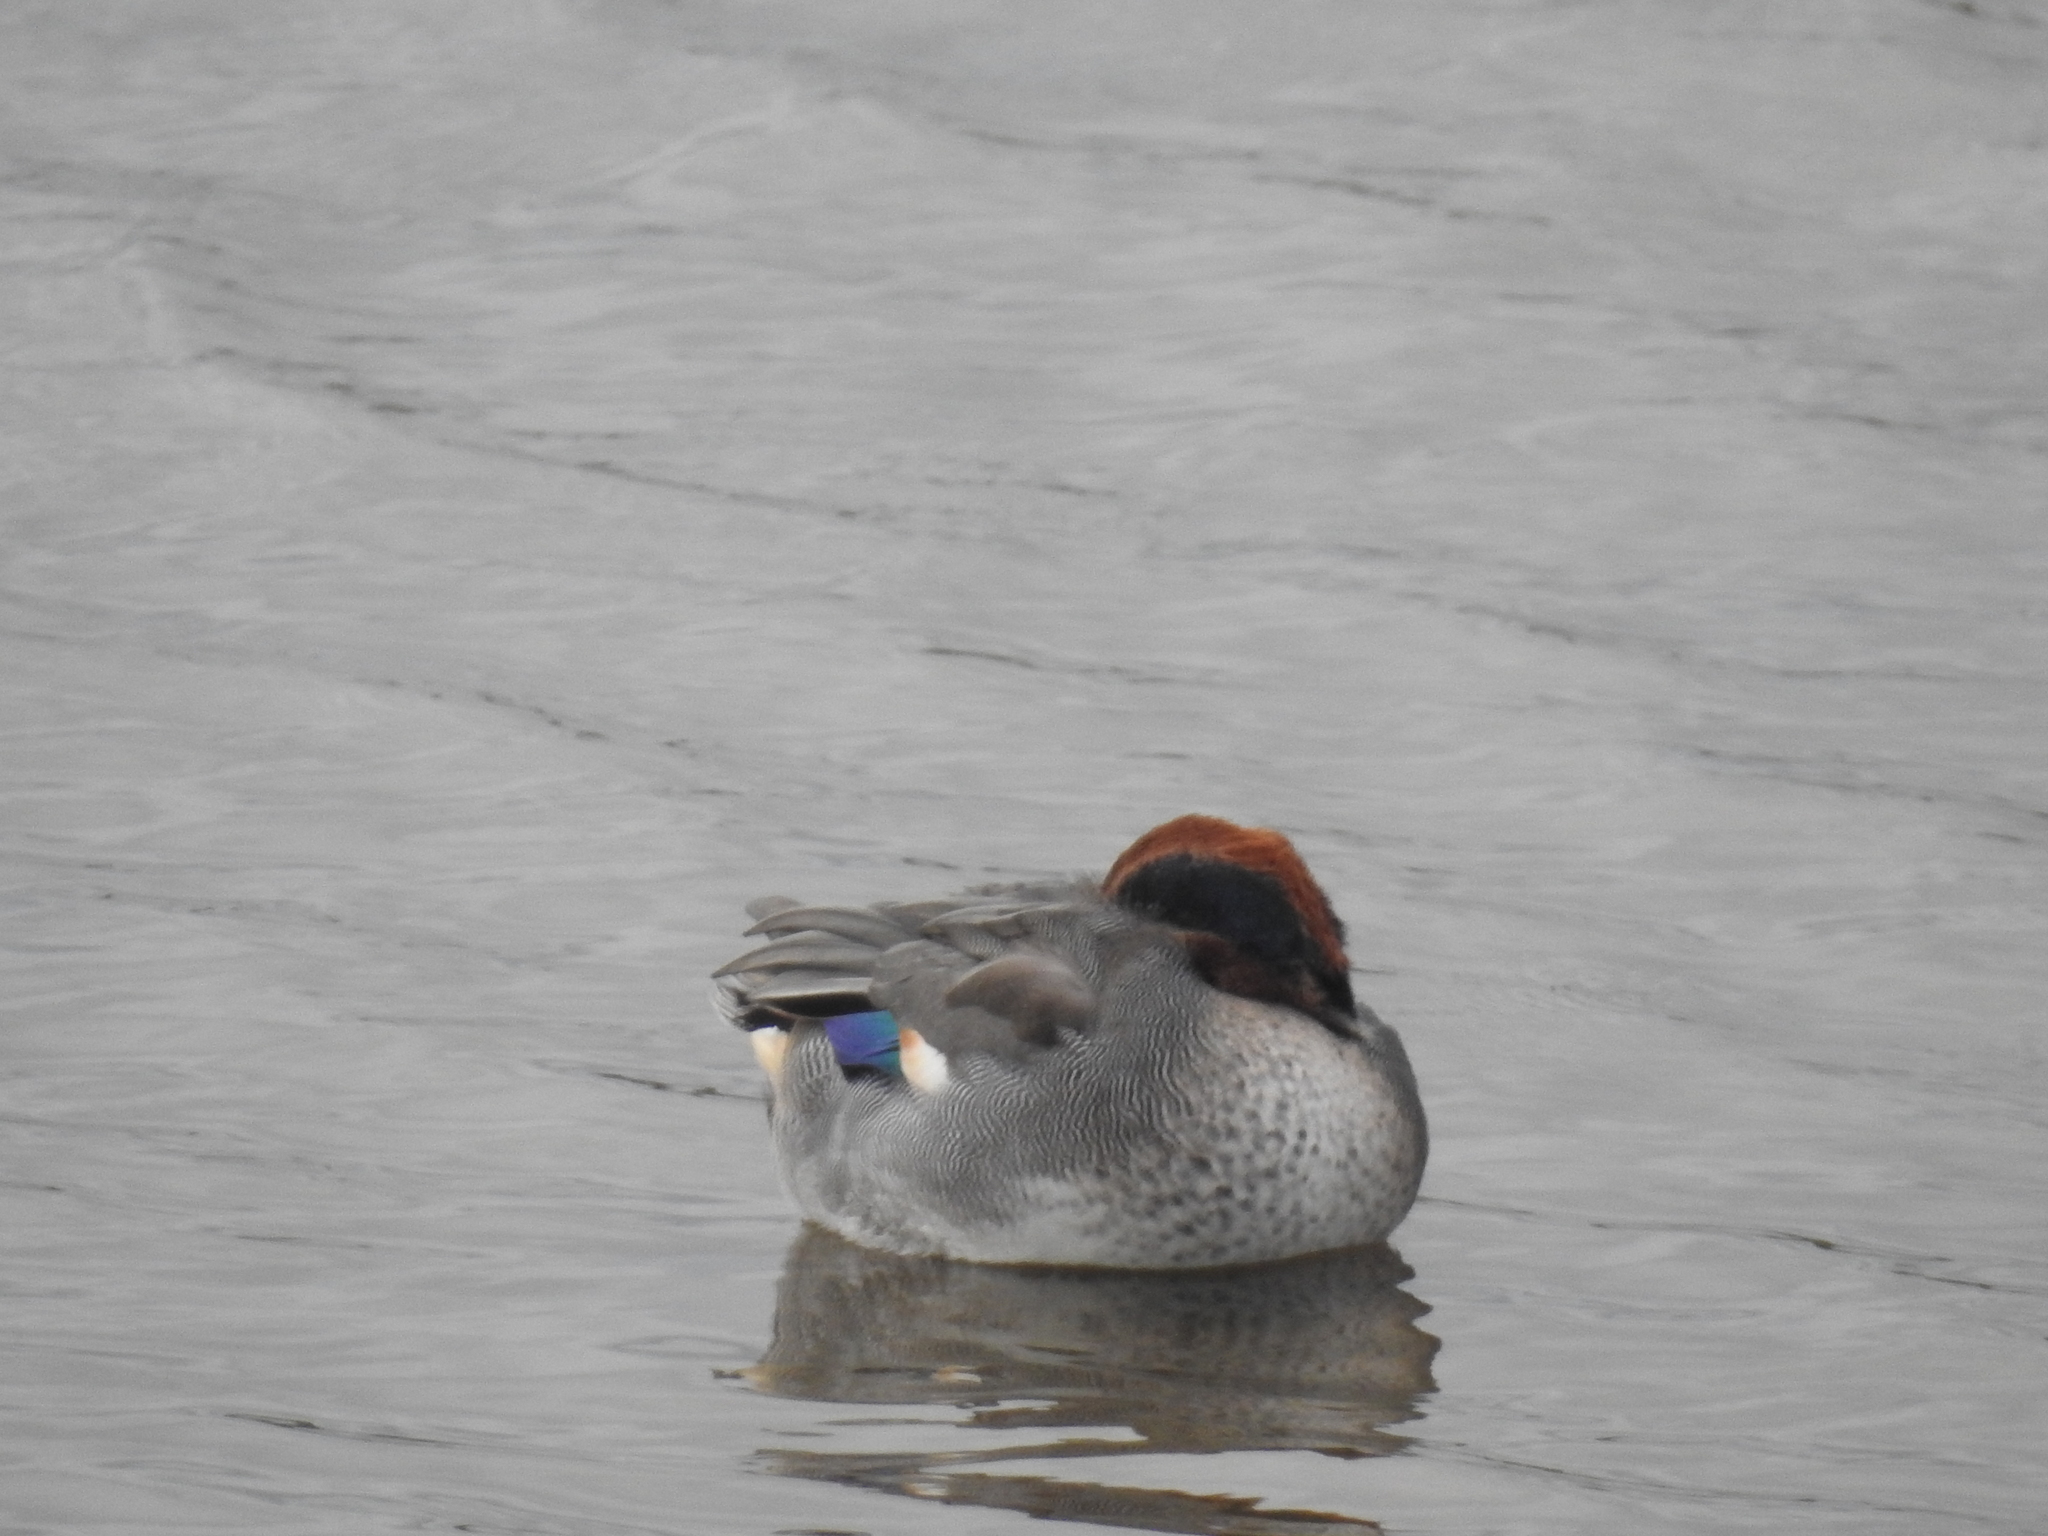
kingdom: Animalia
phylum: Chordata
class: Aves
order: Anseriformes
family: Anatidae
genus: Anas
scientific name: Anas crecca
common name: Eurasian teal
